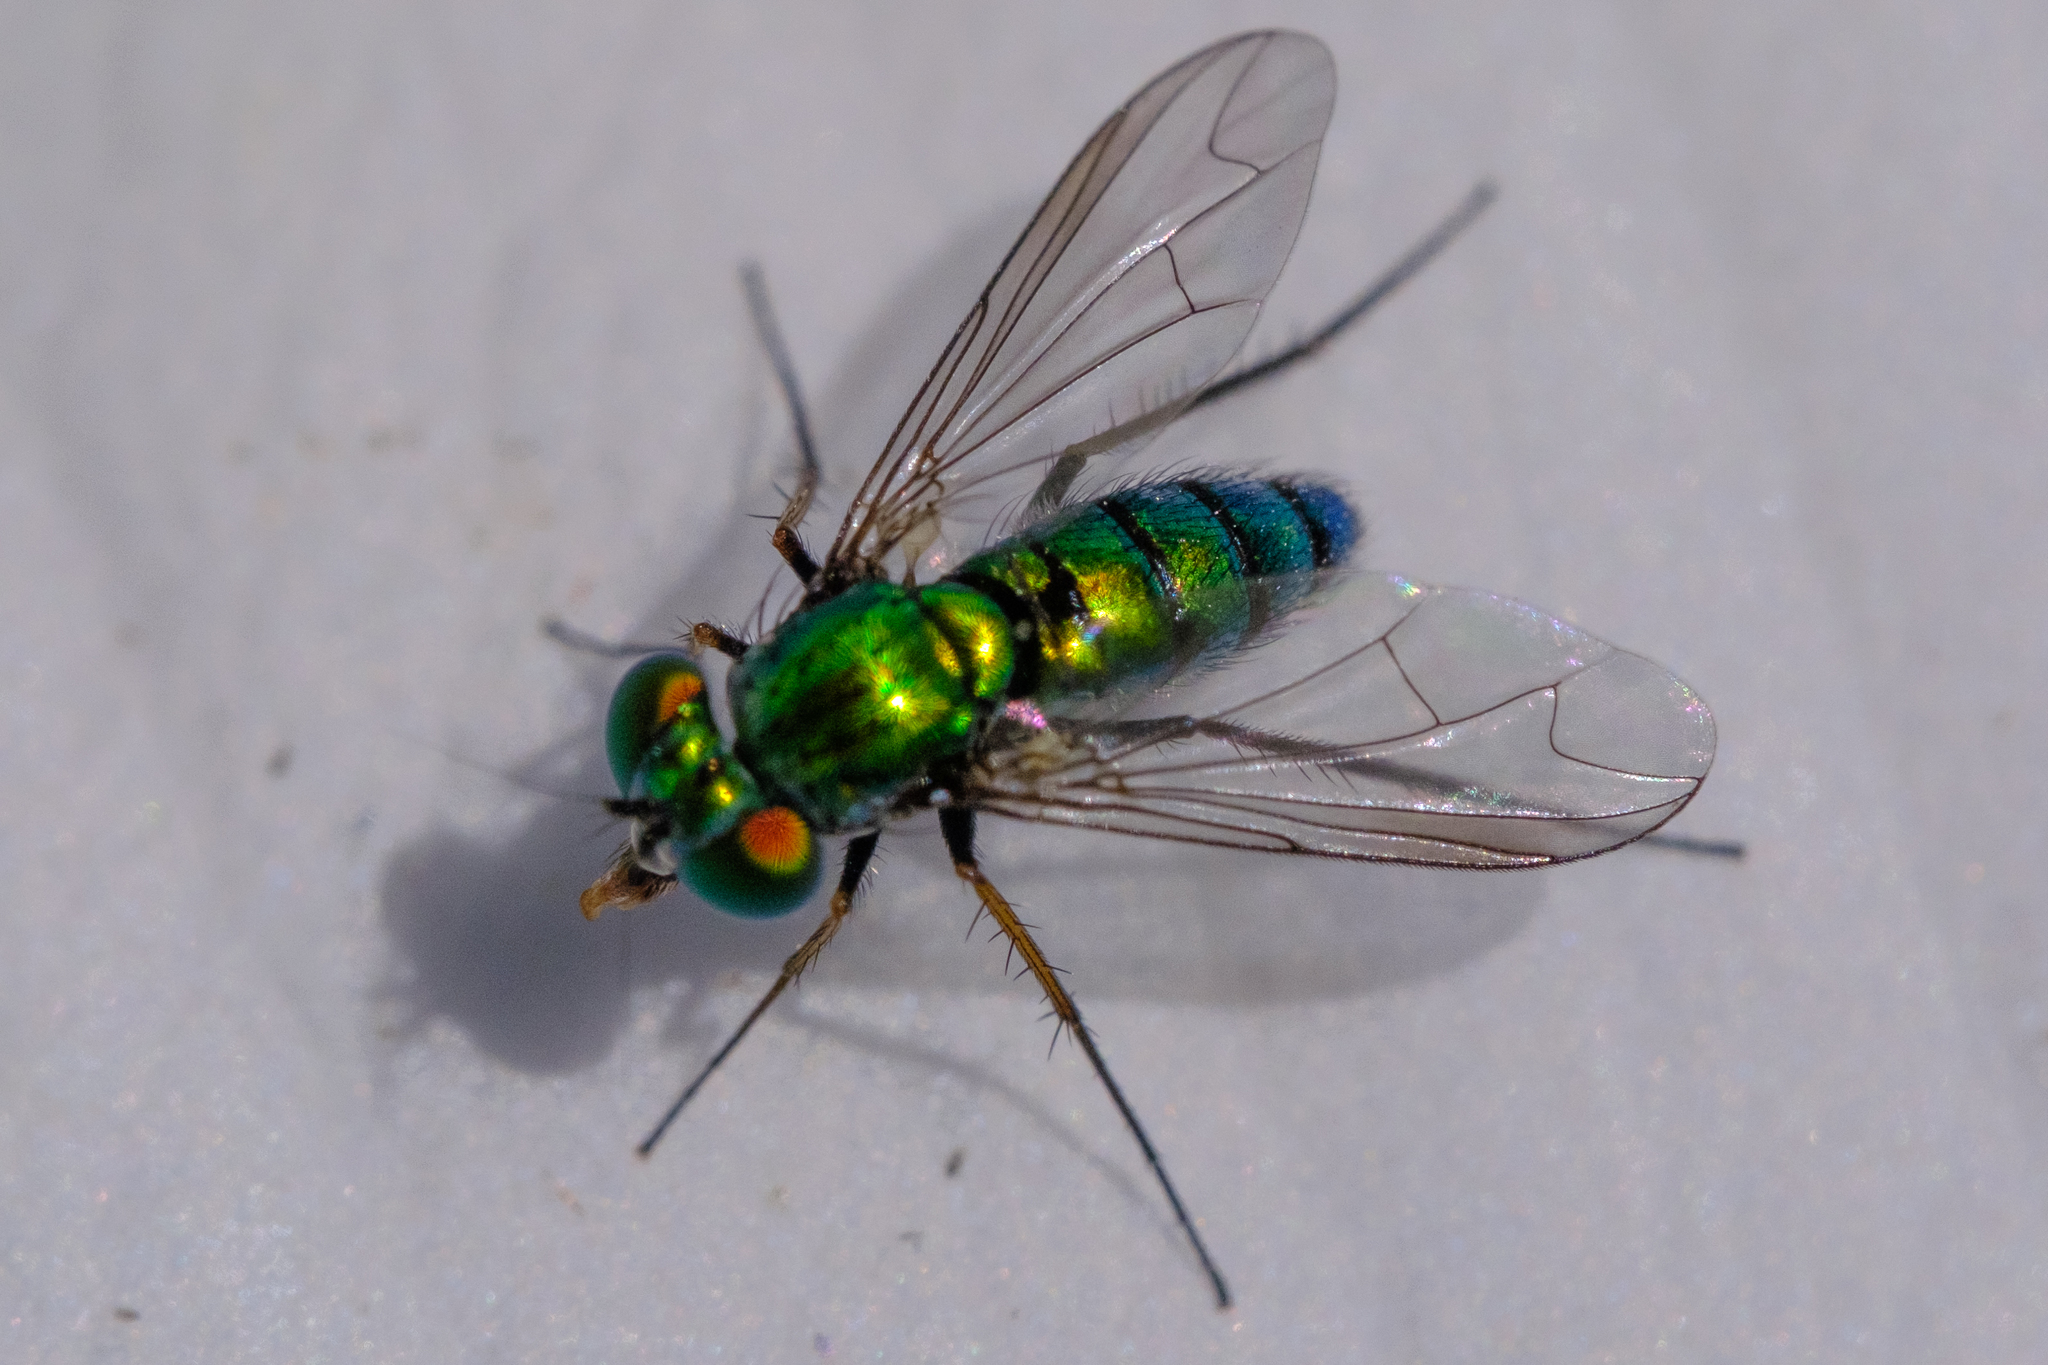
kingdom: Animalia
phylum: Arthropoda
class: Insecta
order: Diptera
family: Dolichopodidae
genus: Condylostylus
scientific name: Condylostylus longicornis
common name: Long-legged fly
